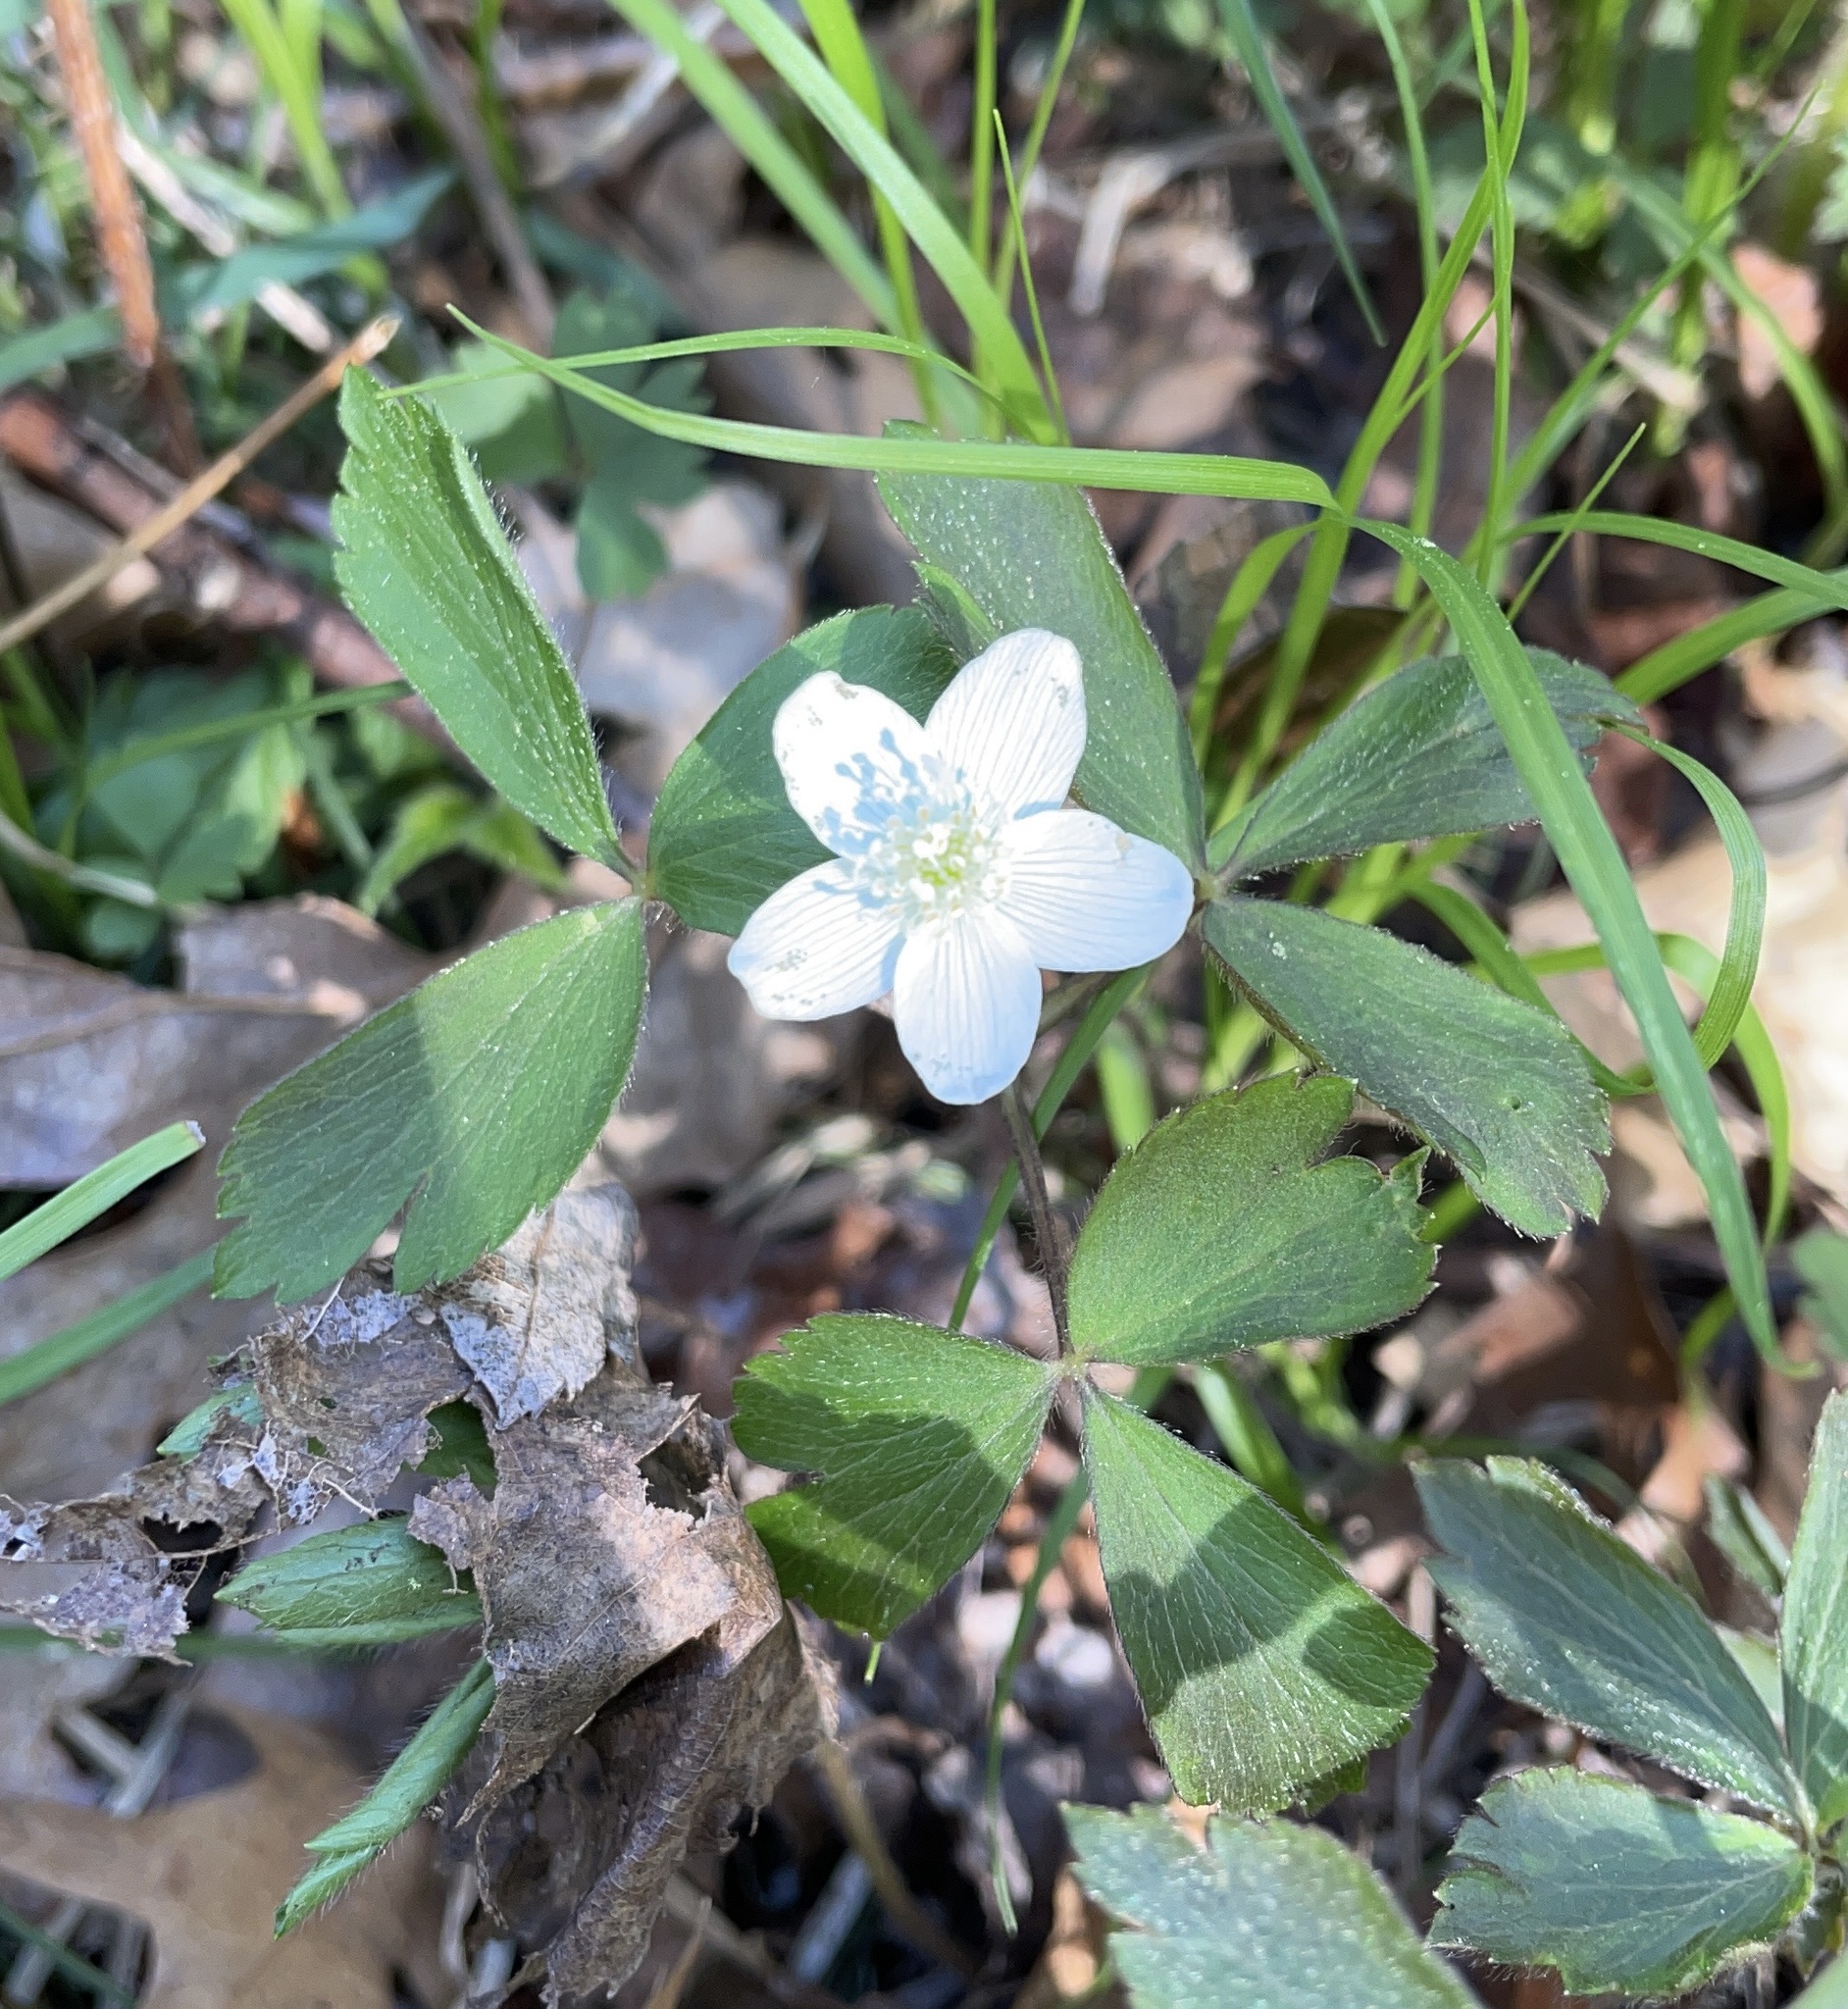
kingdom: Plantae
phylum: Tracheophyta
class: Magnoliopsida
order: Ranunculales
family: Ranunculaceae
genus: Anemone
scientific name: Anemone quinquefolia
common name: Wood anemone
